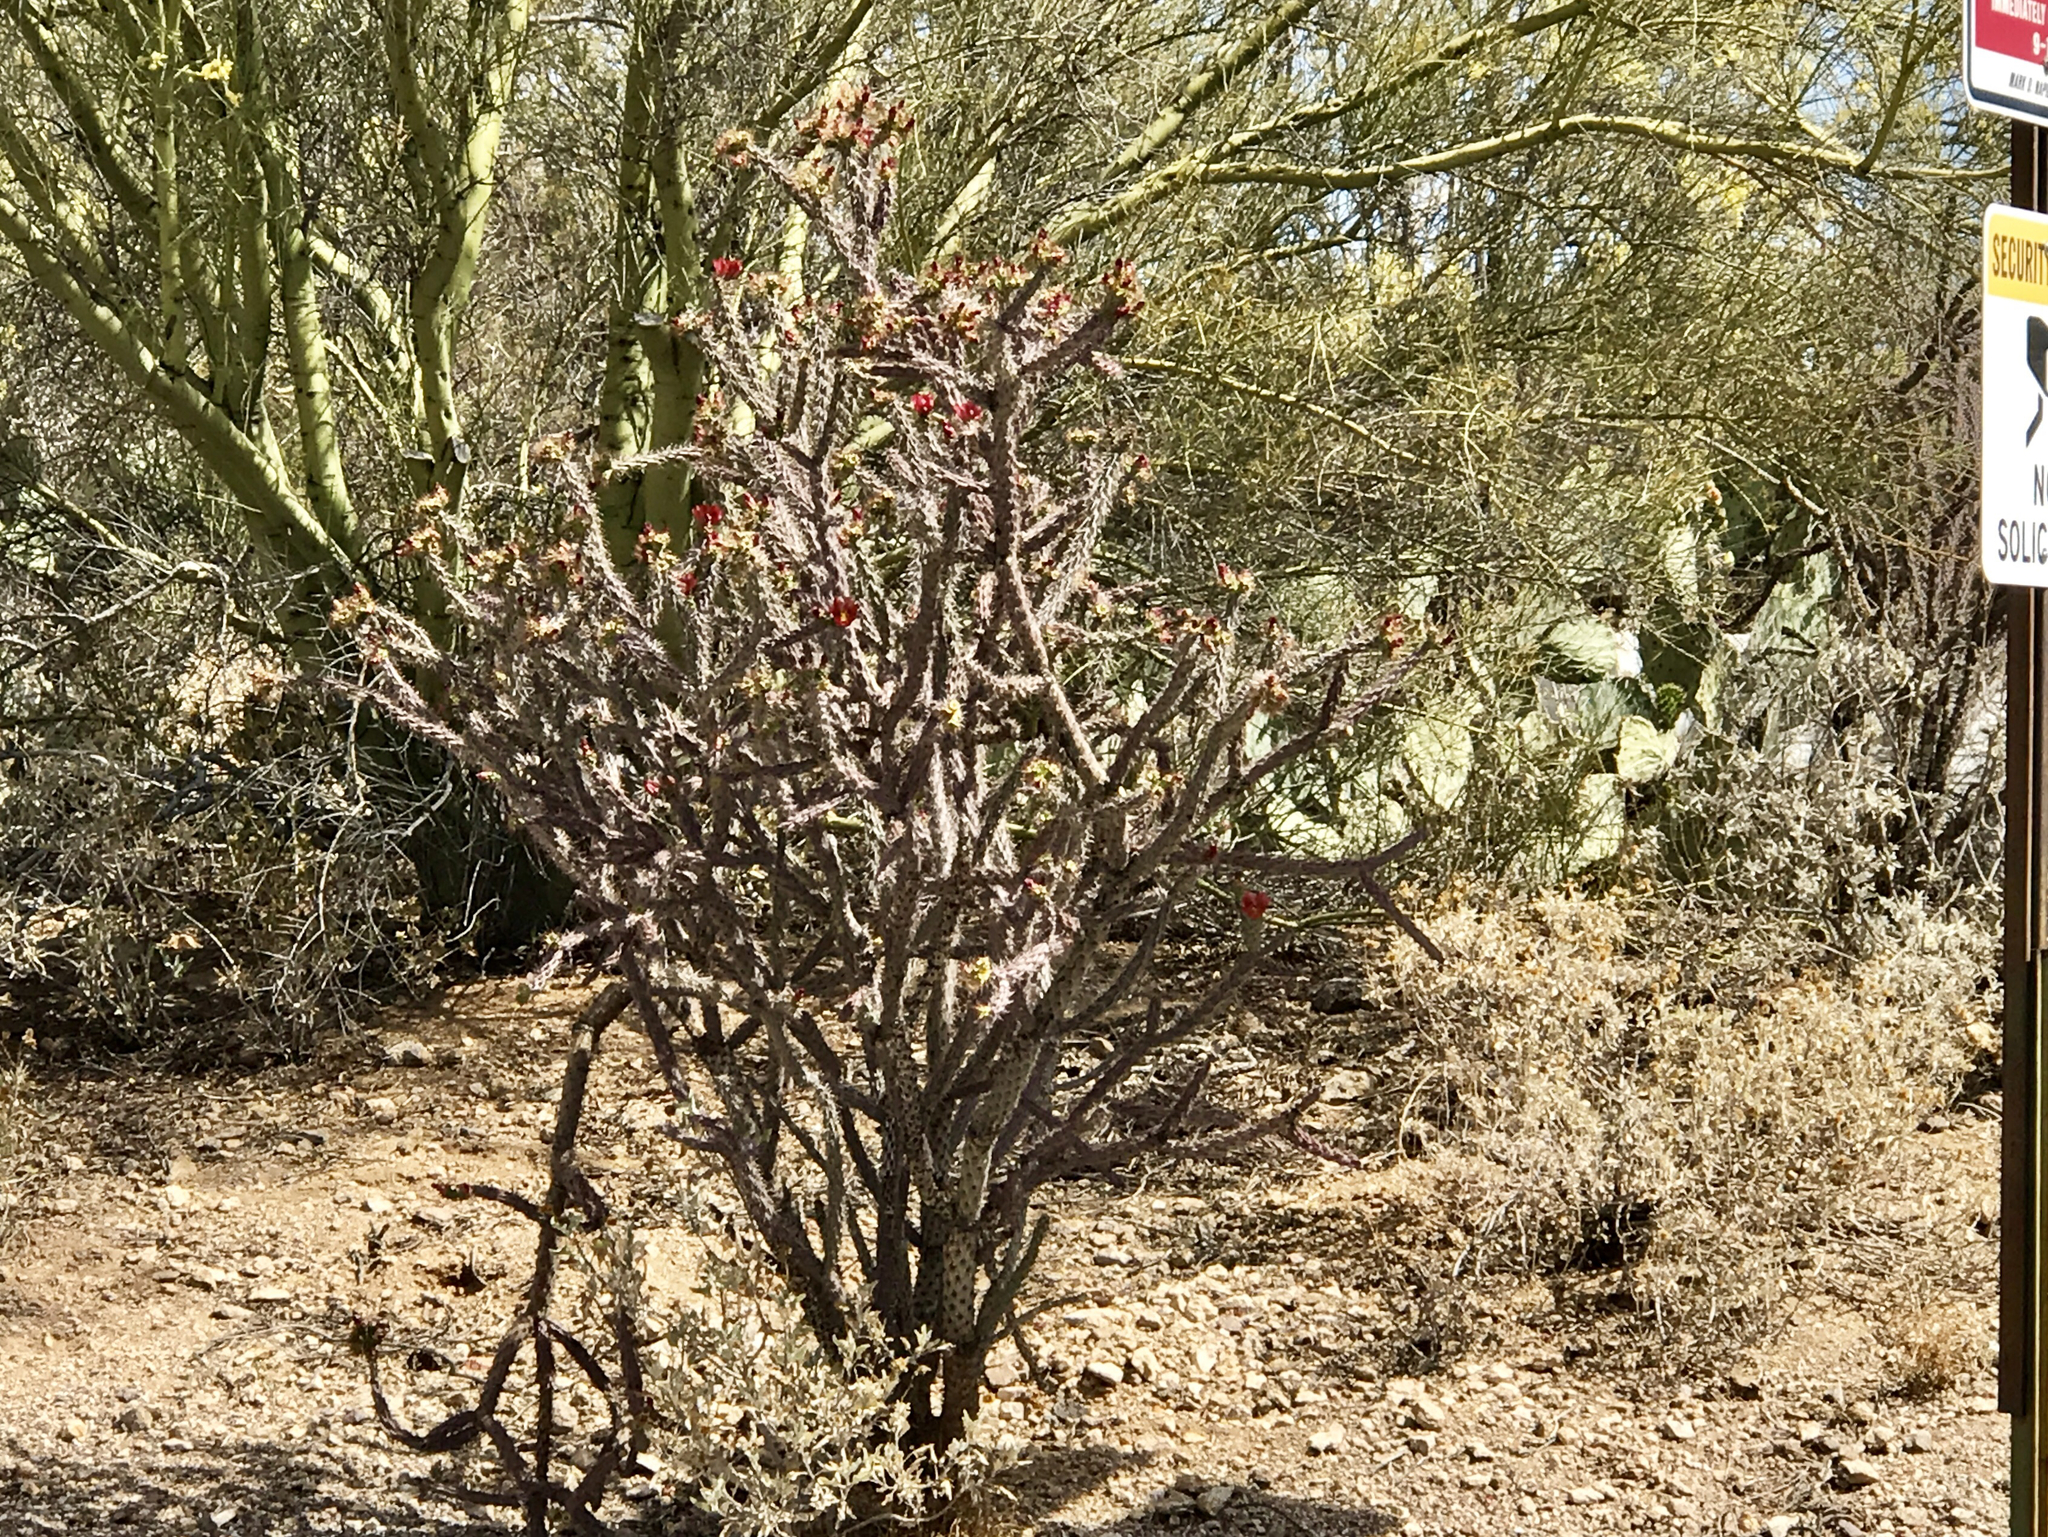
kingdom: Plantae
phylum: Tracheophyta
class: Magnoliopsida
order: Caryophyllales
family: Cactaceae
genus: Cylindropuntia
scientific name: Cylindropuntia thurberi
